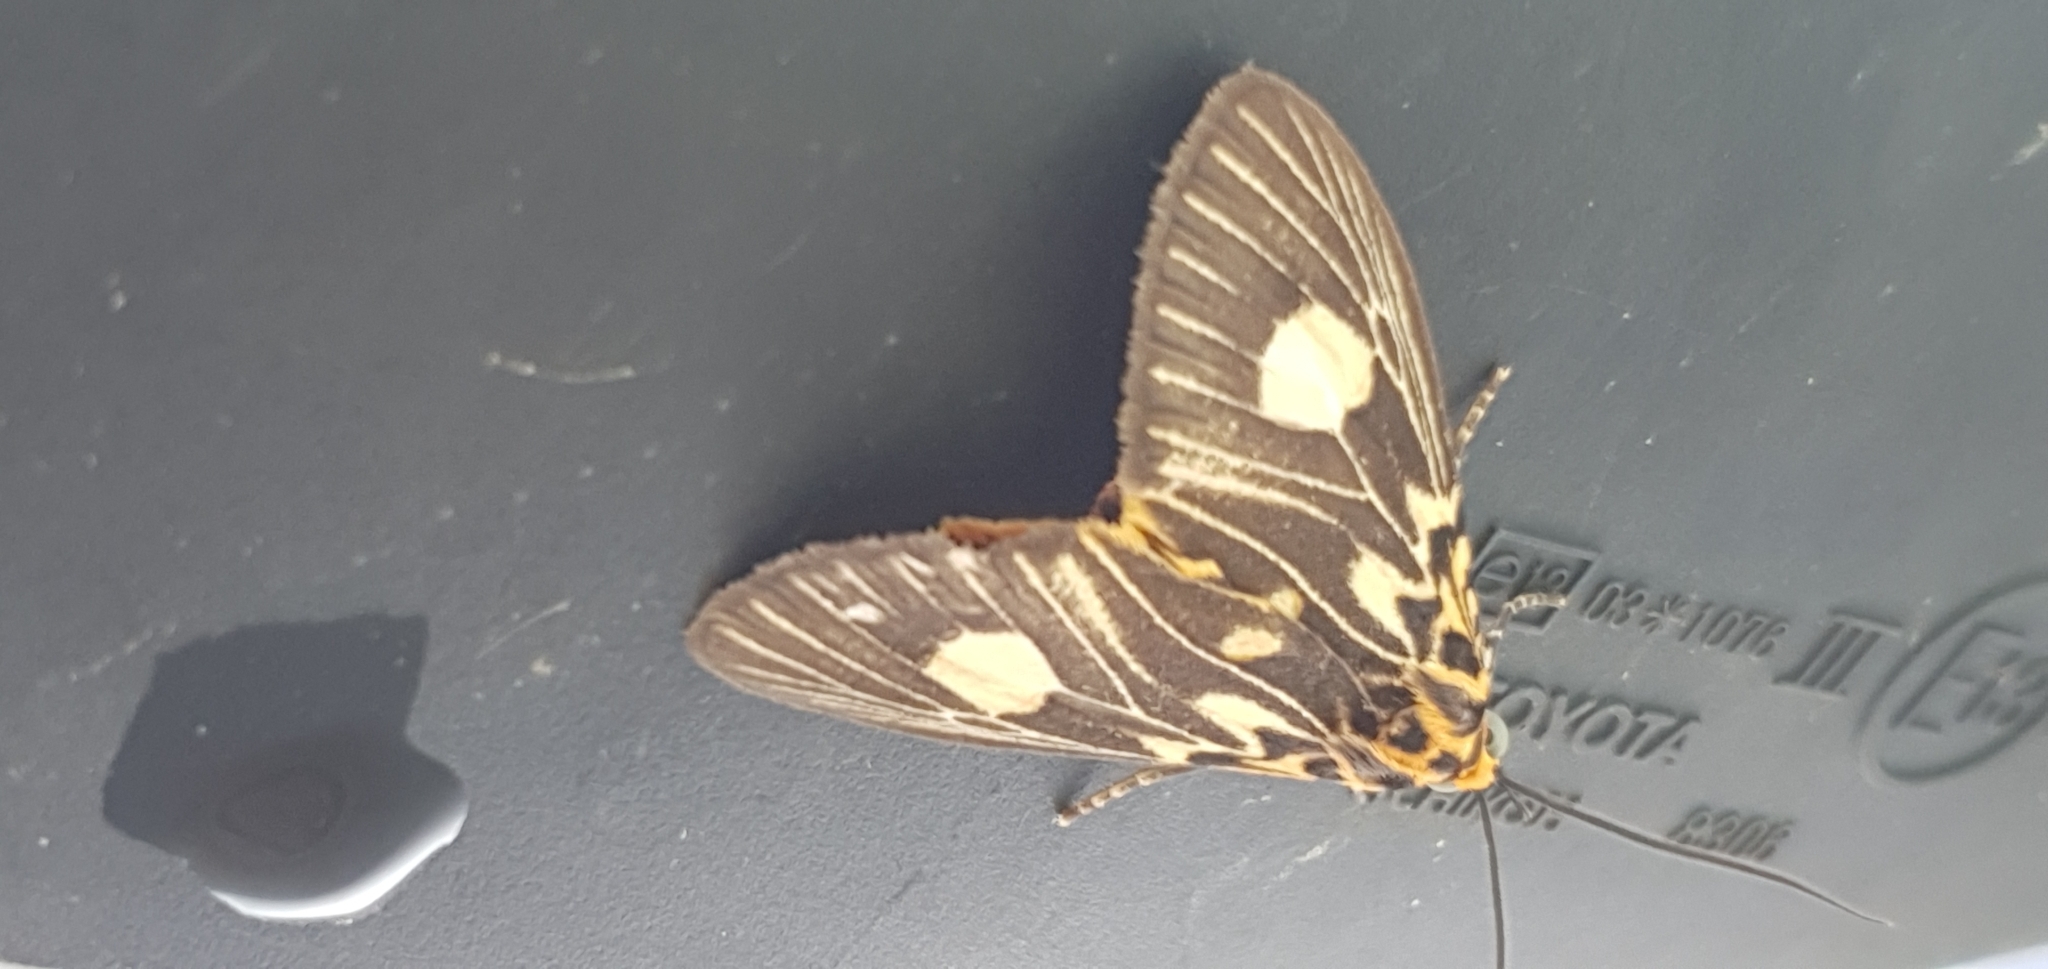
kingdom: Animalia
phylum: Arthropoda
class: Insecta
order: Lepidoptera
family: Erebidae
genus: Asota
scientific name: Asota plagiata
